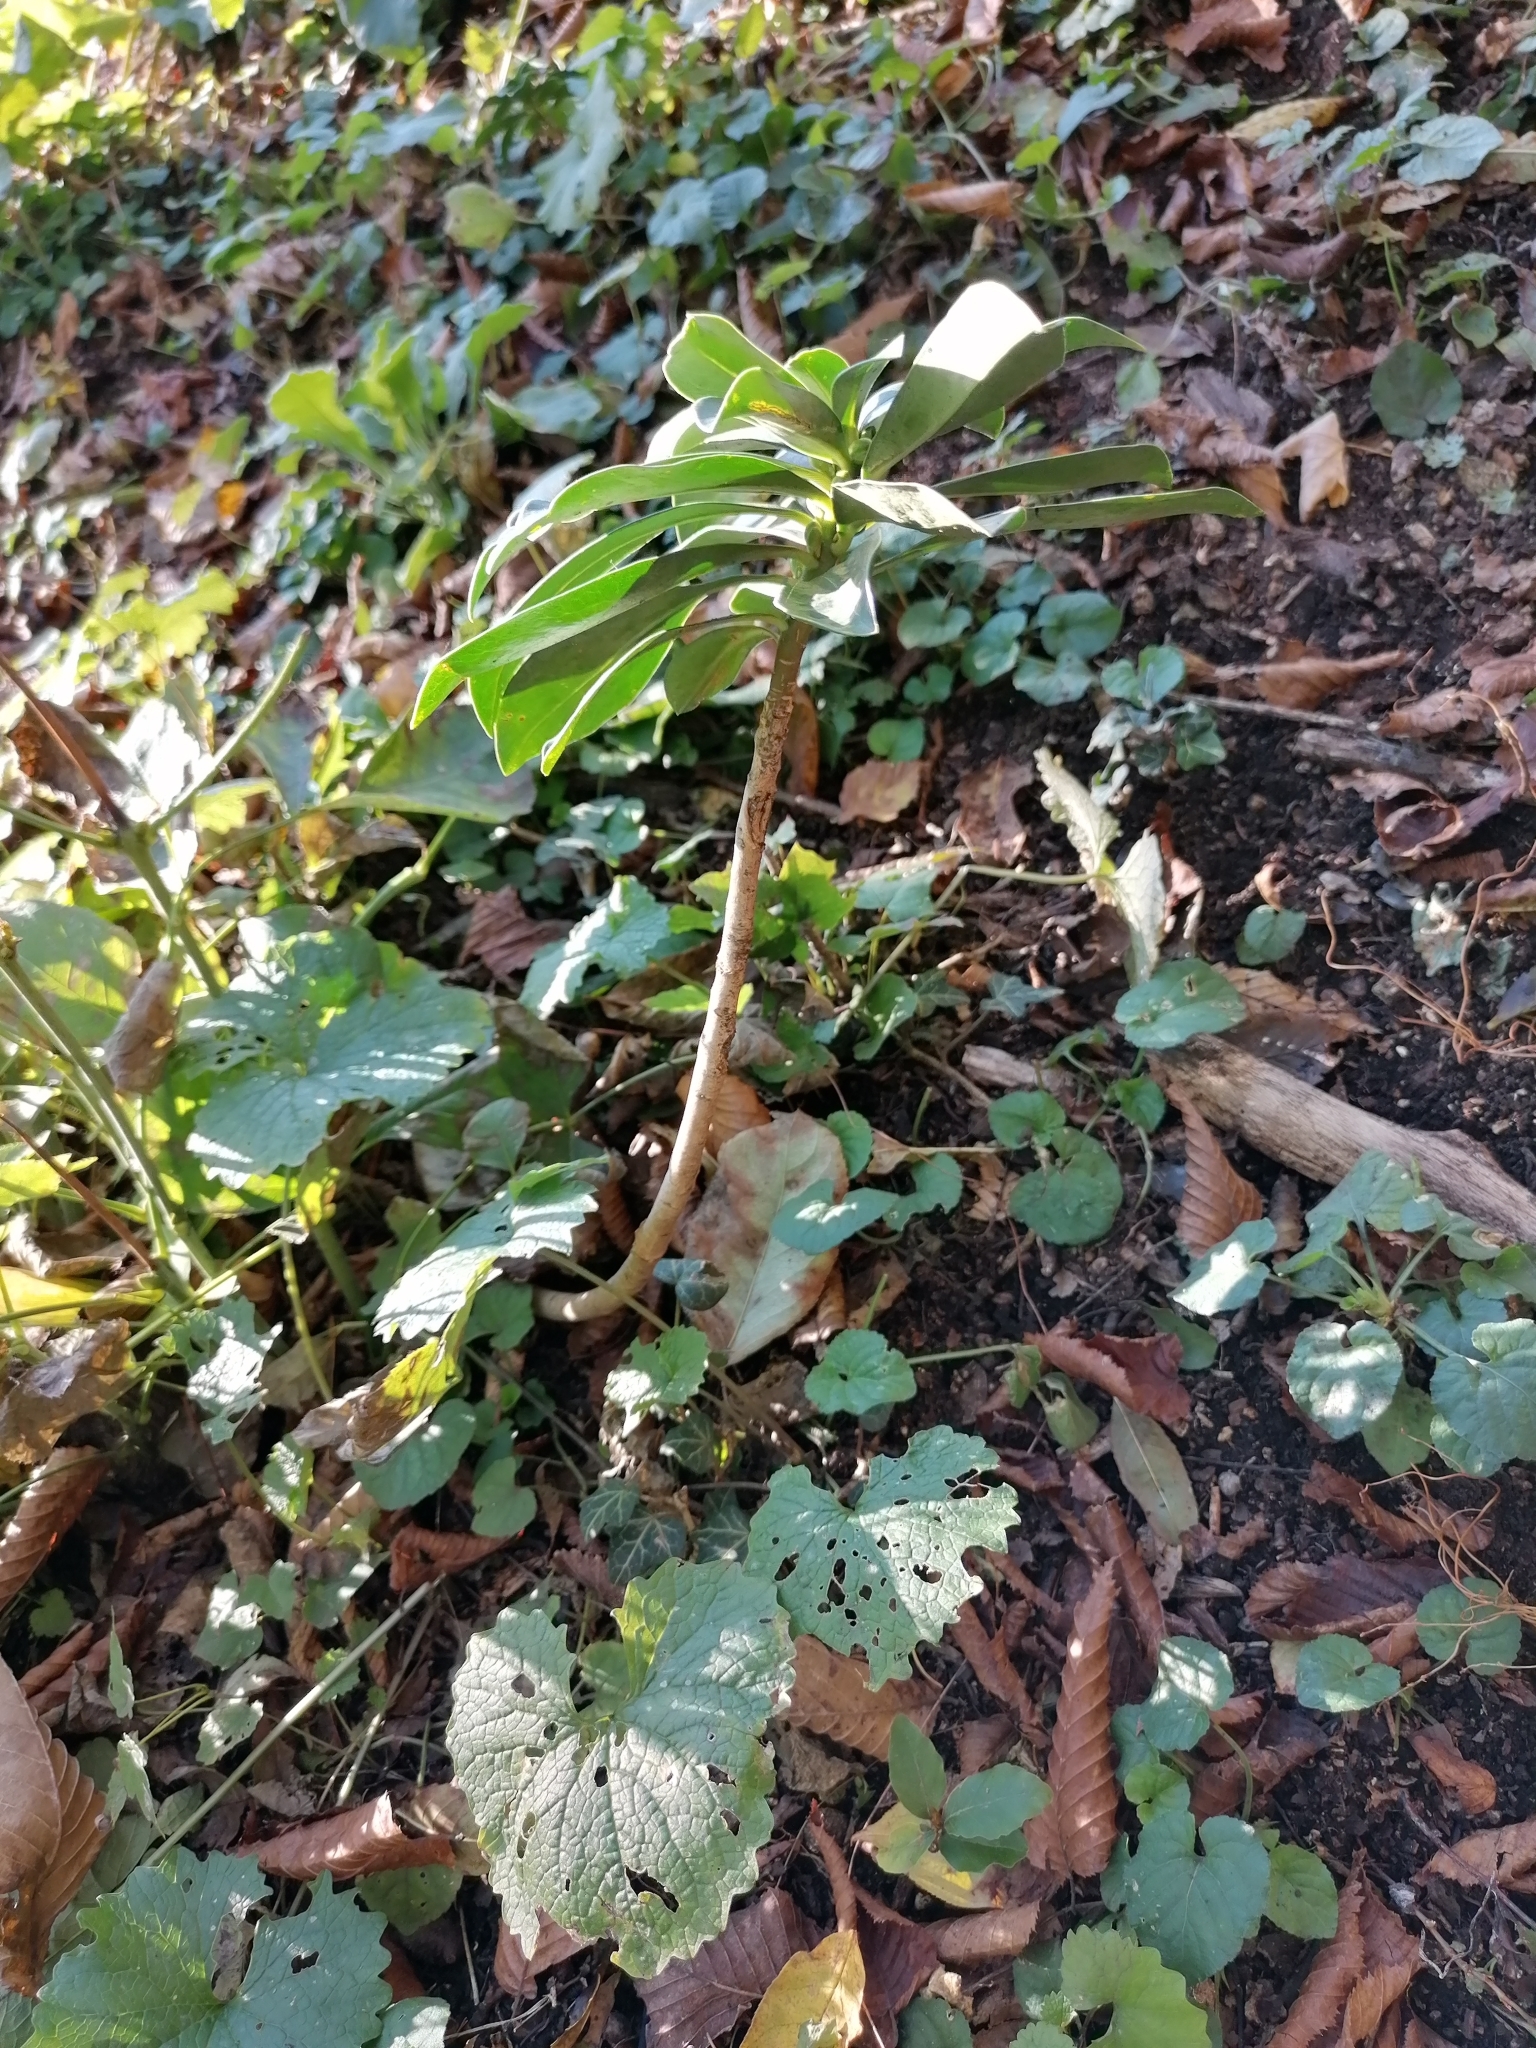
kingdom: Plantae
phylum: Tracheophyta
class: Magnoliopsida
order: Malvales
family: Thymelaeaceae
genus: Daphne
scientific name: Daphne laureola
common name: Spurge-laurel
